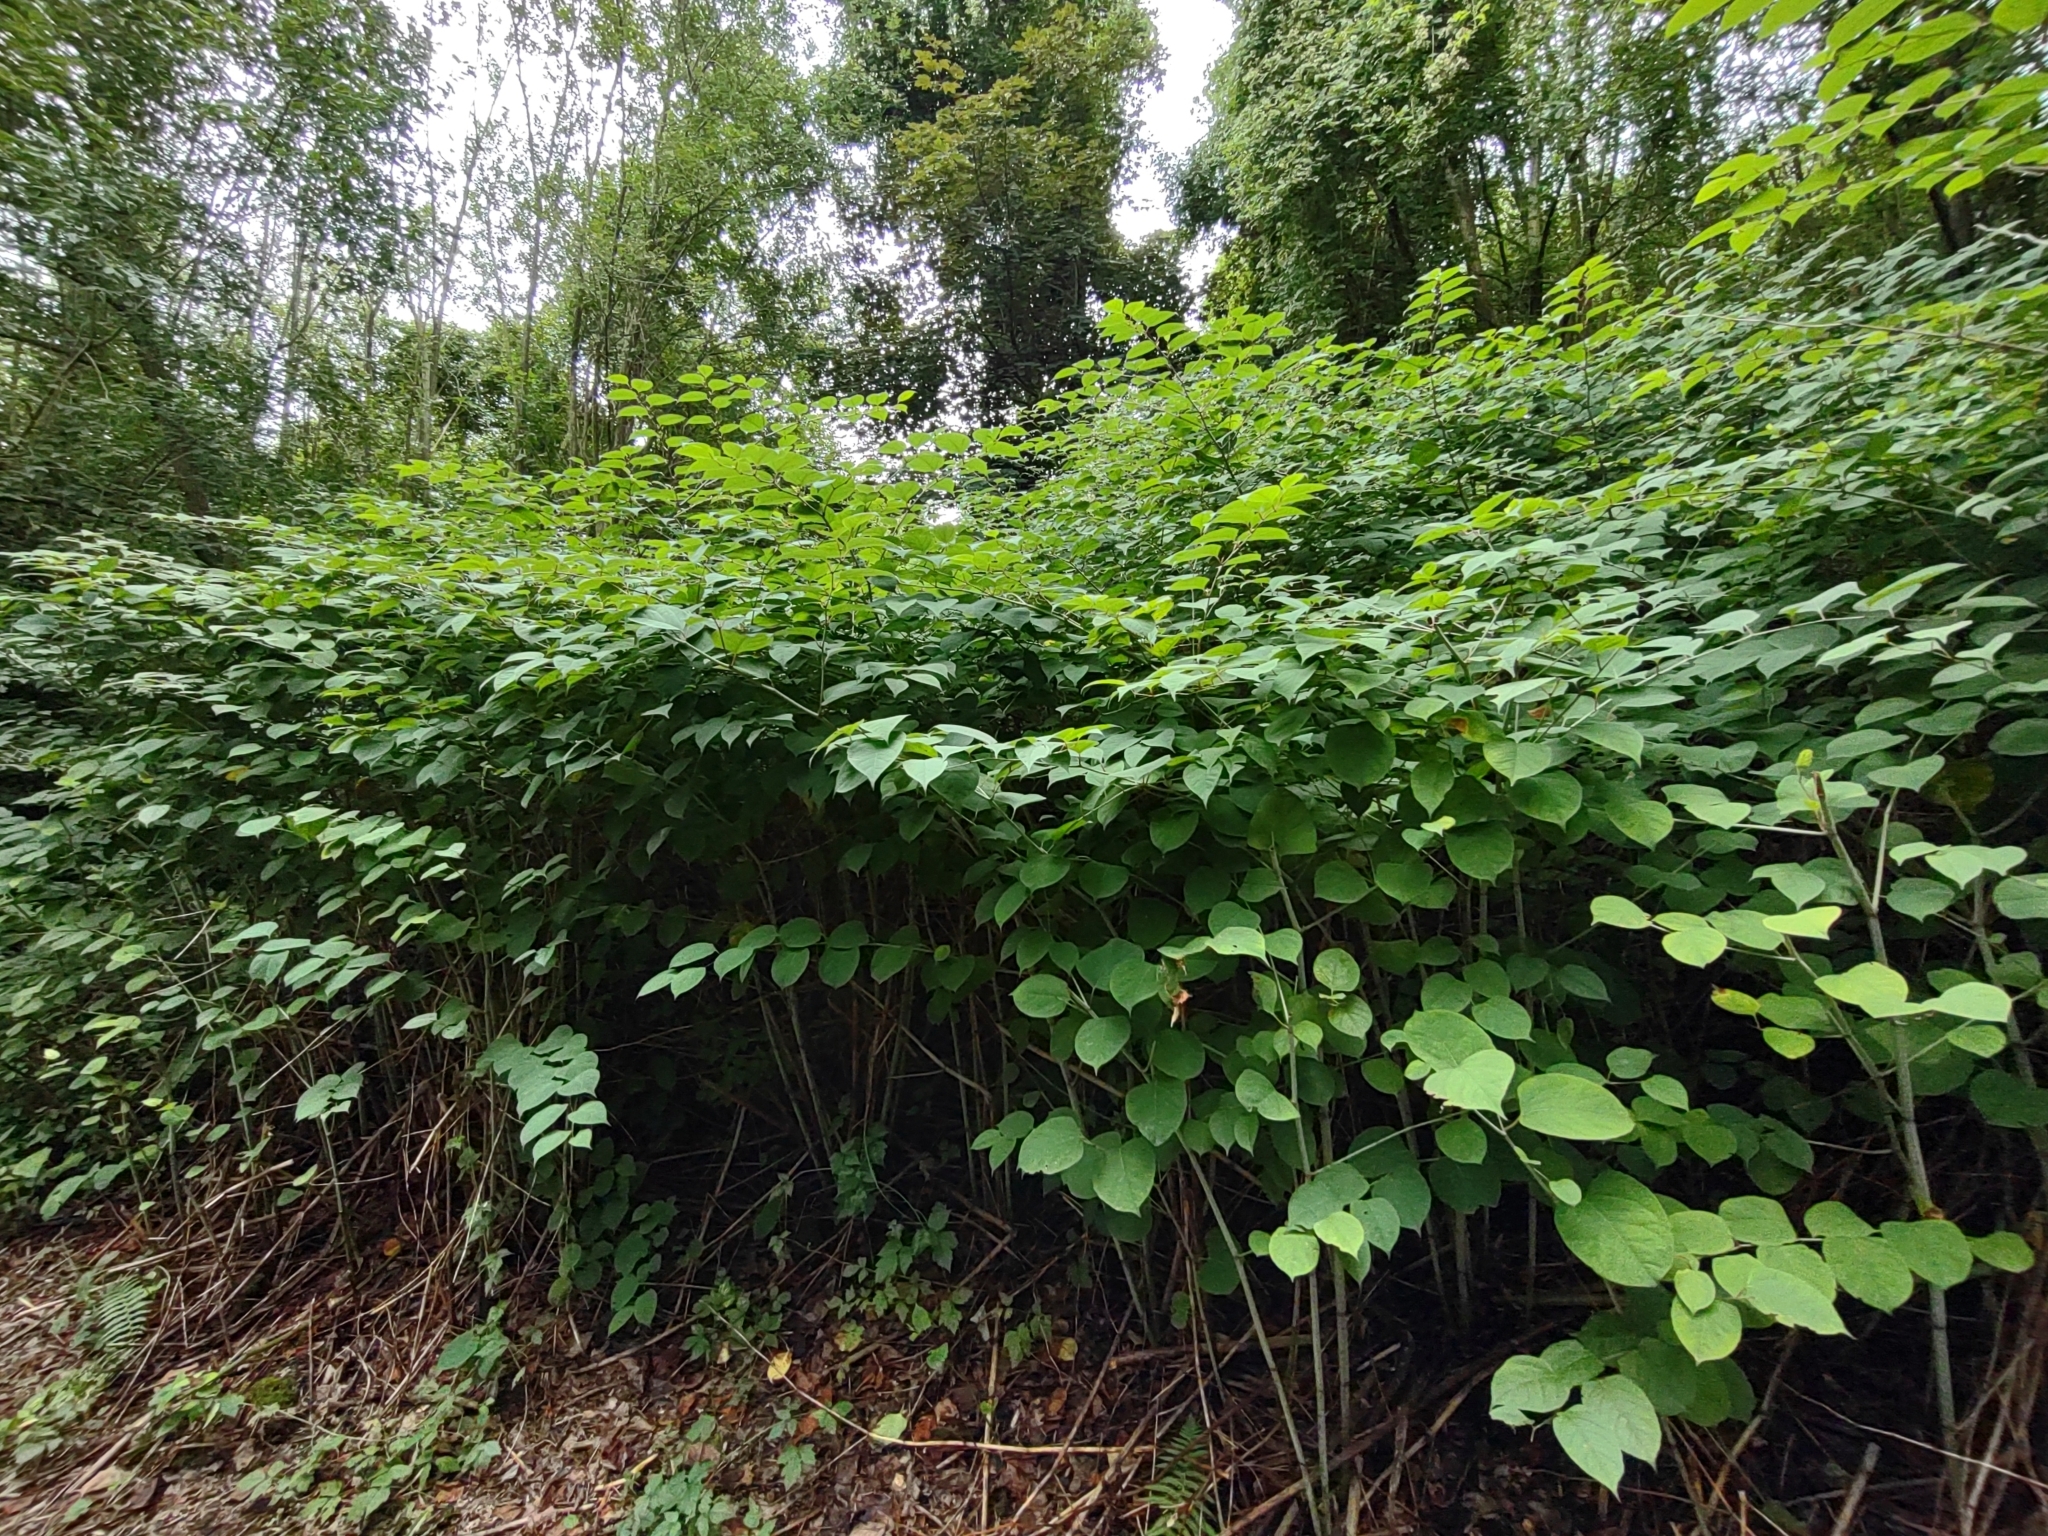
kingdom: Plantae
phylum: Tracheophyta
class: Magnoliopsida
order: Caryophyllales
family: Polygonaceae
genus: Reynoutria
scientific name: Reynoutria japonica
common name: Japanese knotweed
